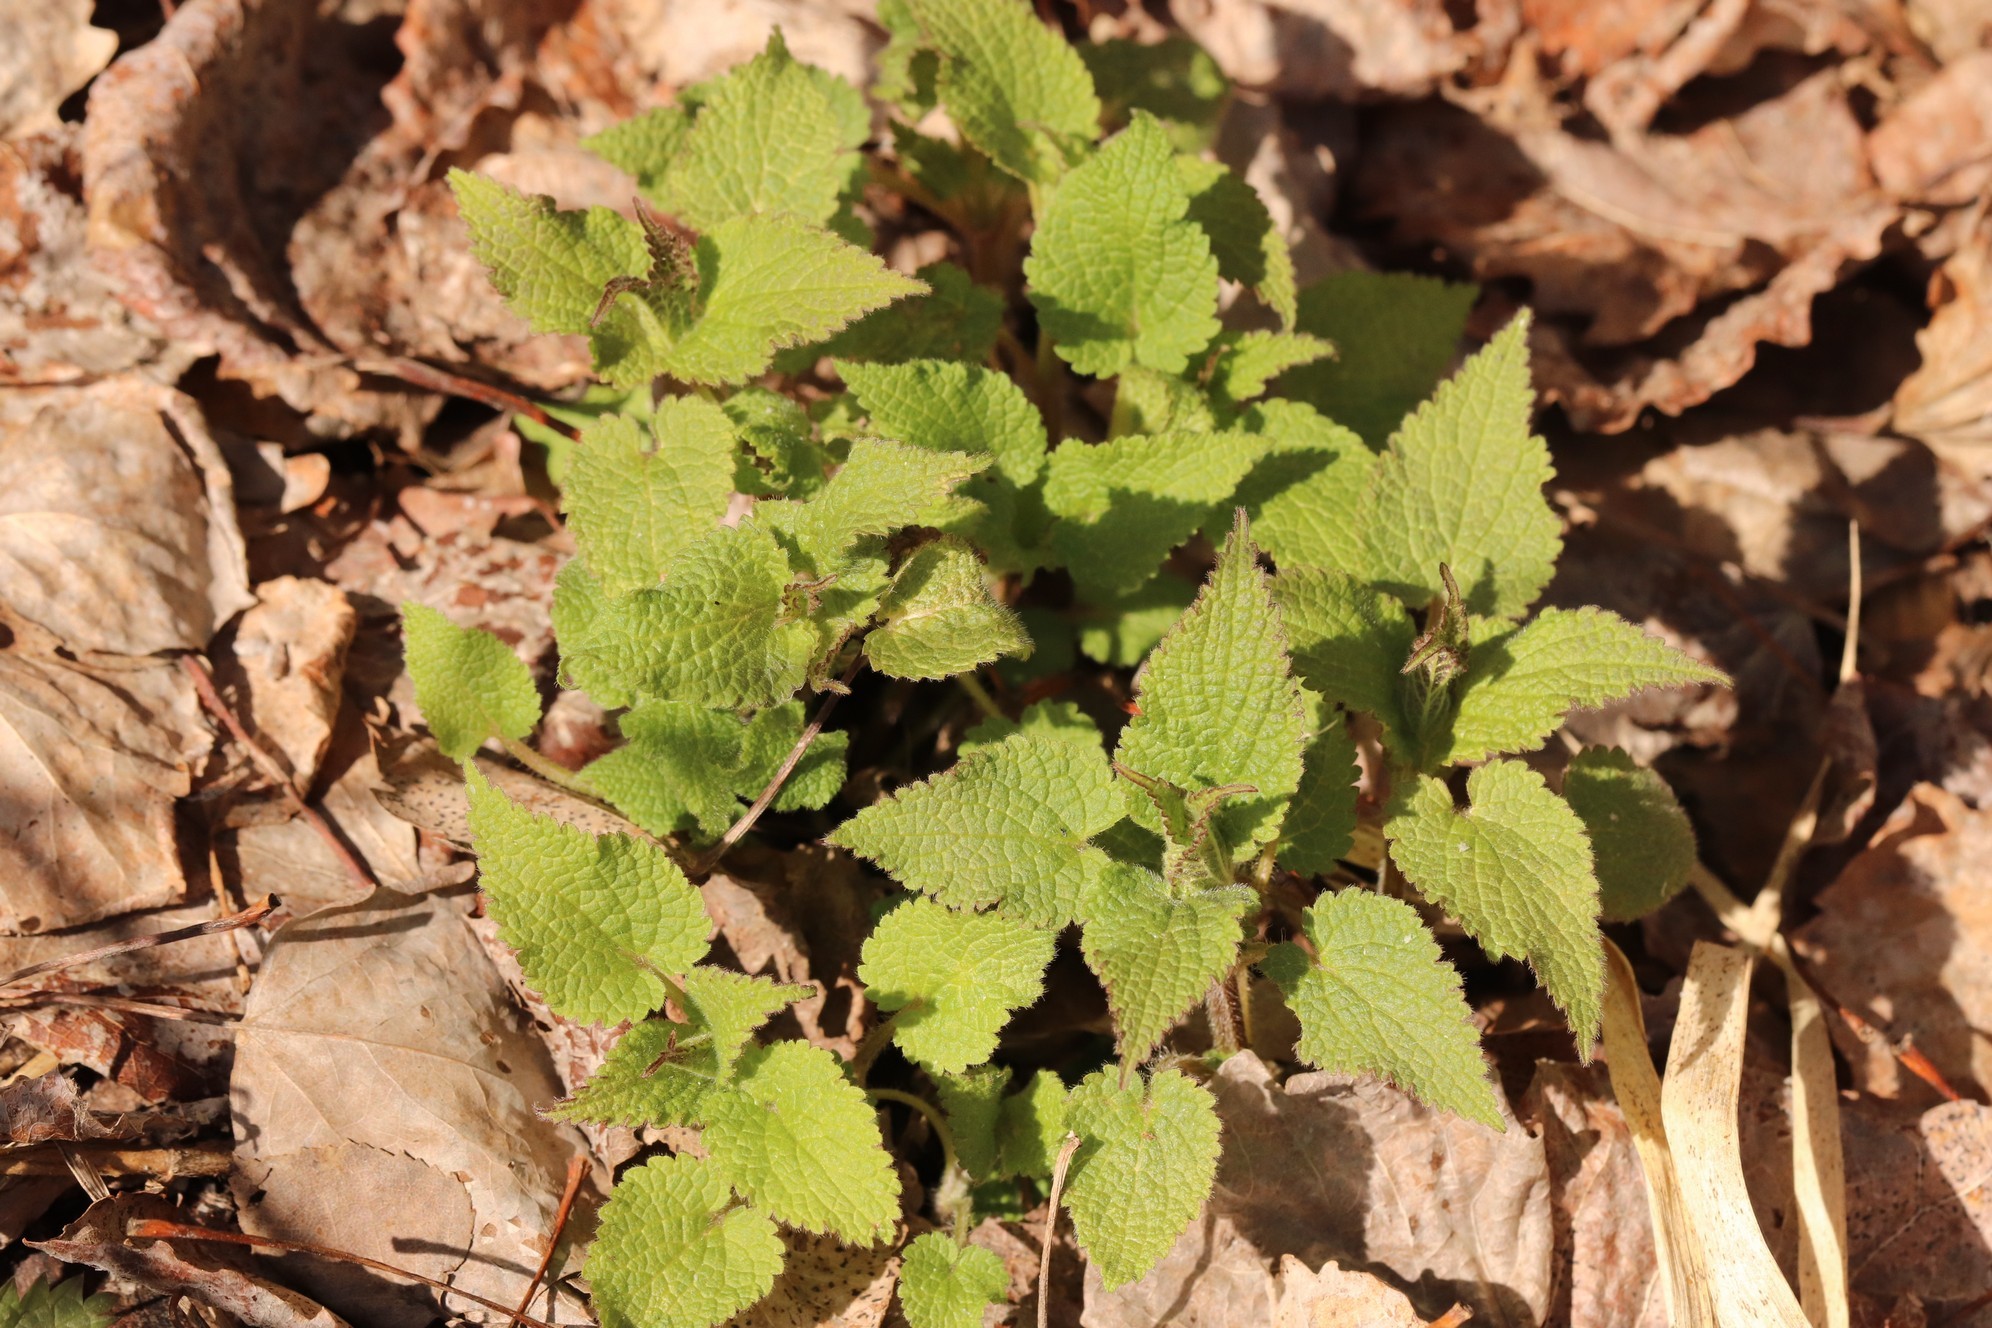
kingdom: Plantae
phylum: Tracheophyta
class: Magnoliopsida
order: Lamiales
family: Lamiaceae
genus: Lamium
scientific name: Lamium album
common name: White dead-nettle
